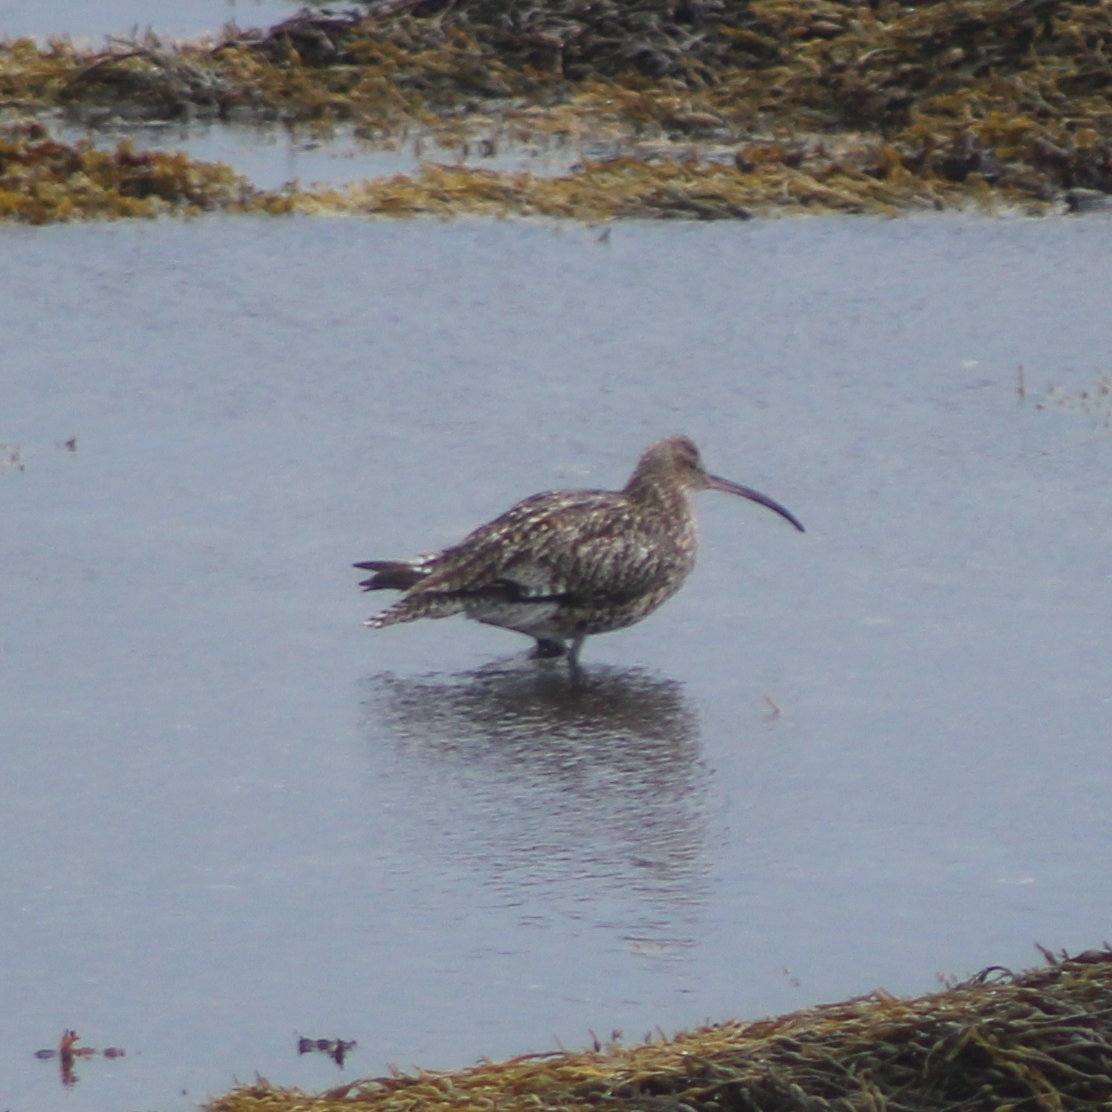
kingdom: Animalia
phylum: Chordata
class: Aves
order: Charadriiformes
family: Scolopacidae
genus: Numenius
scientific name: Numenius arquata
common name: Eurasian curlew
